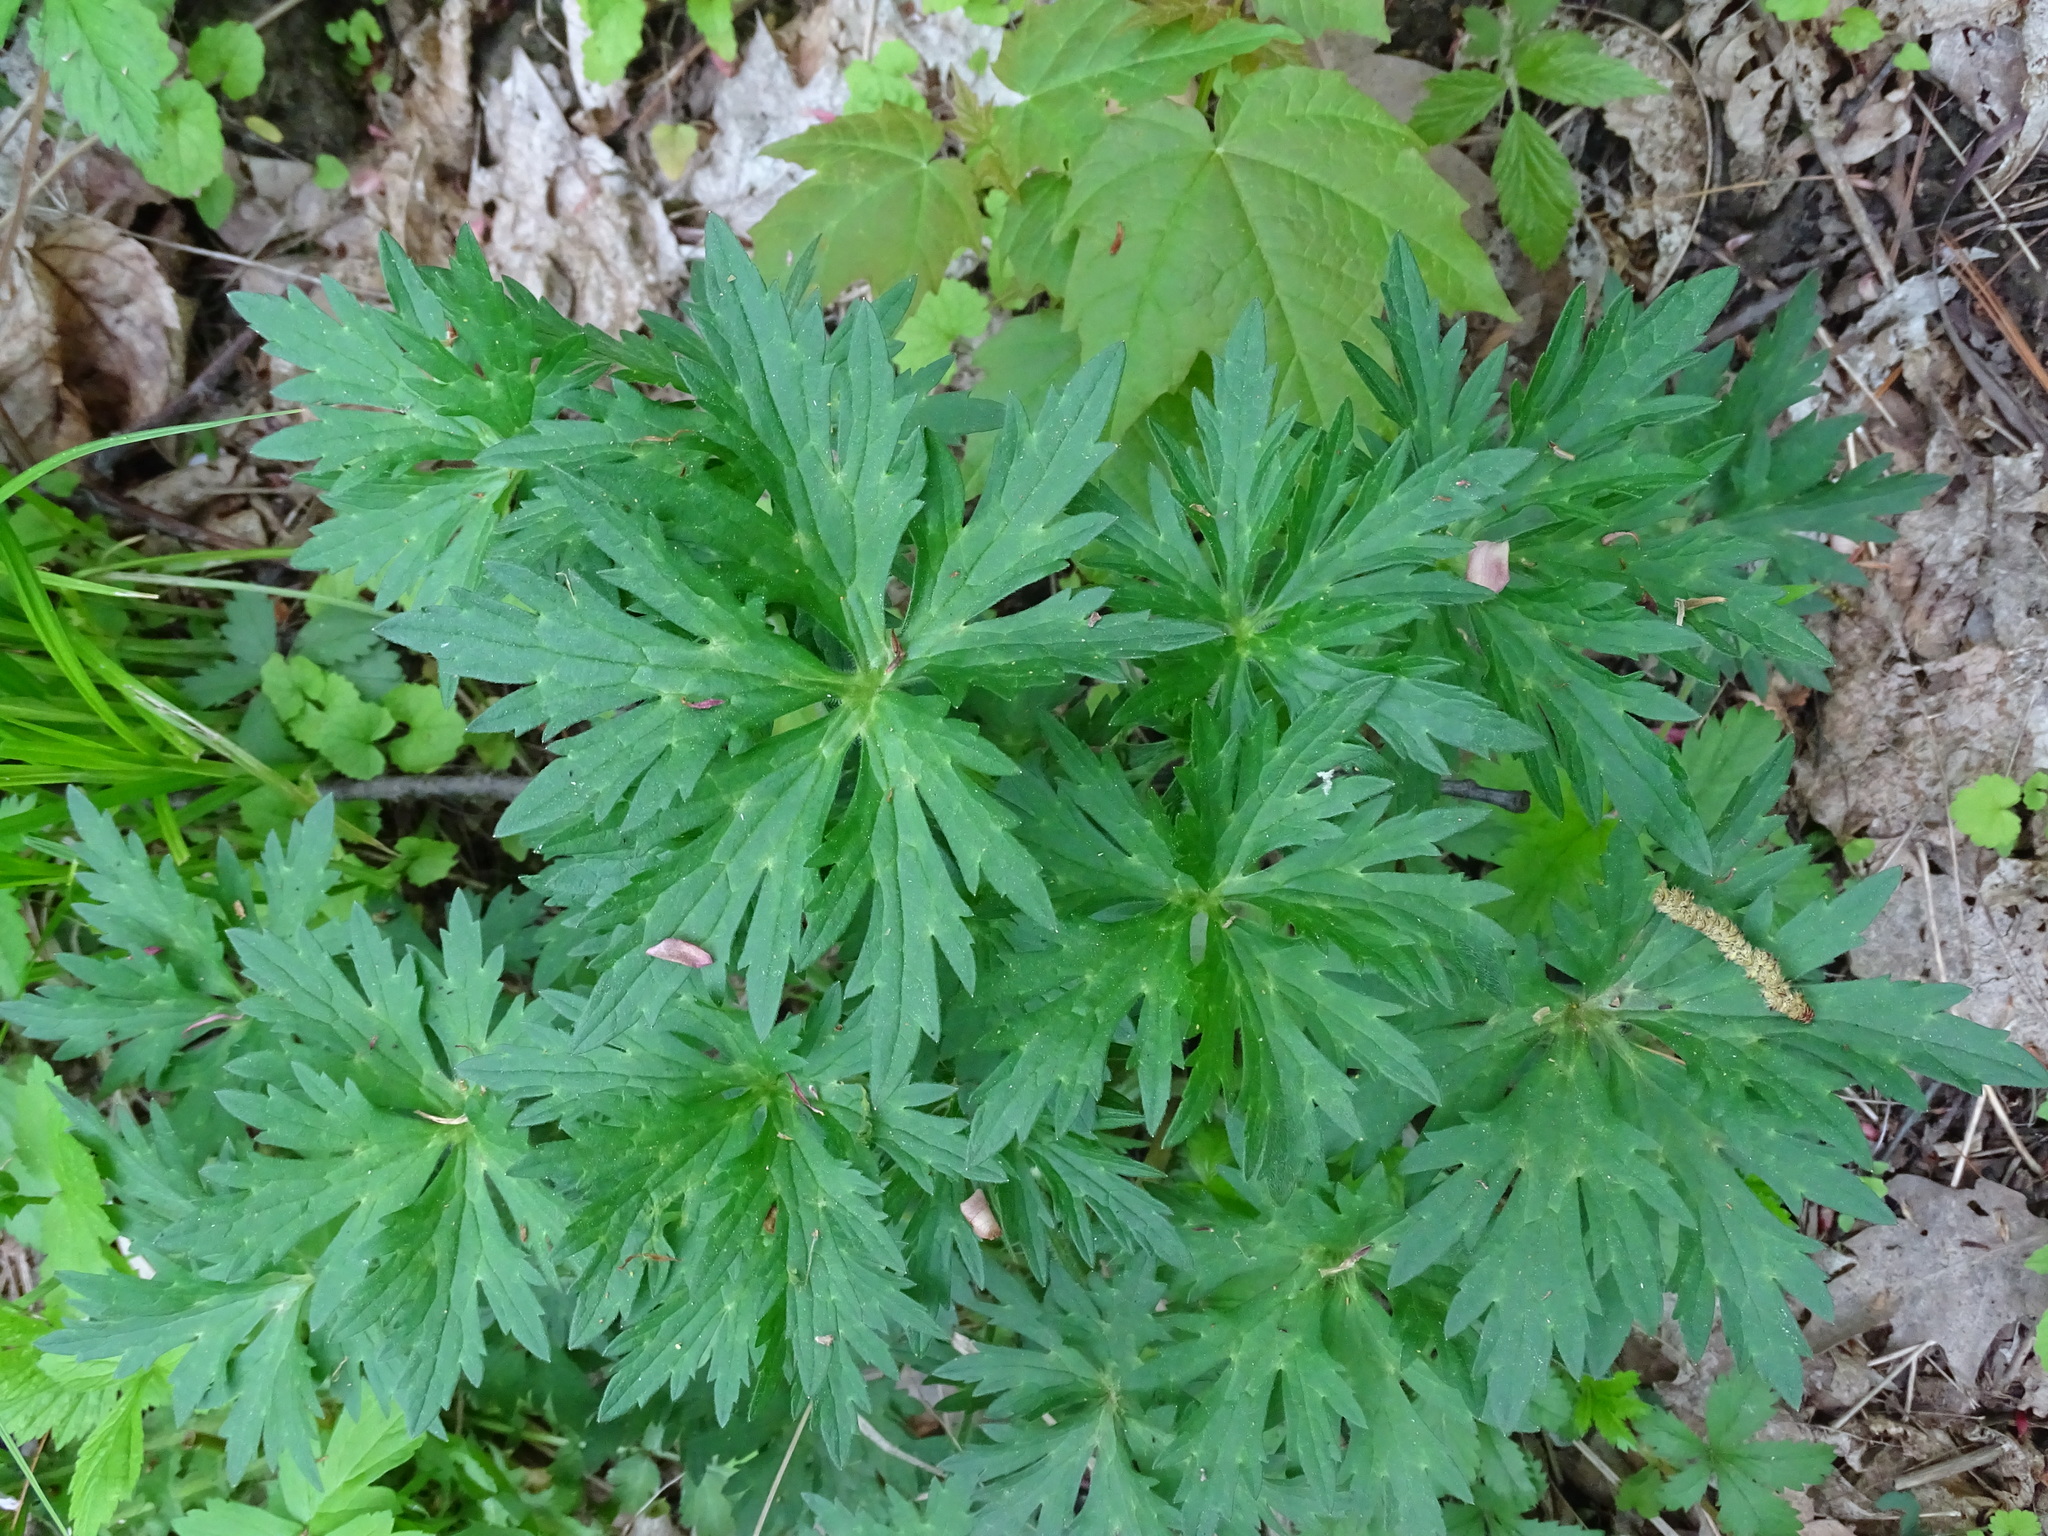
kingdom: Plantae
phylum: Tracheophyta
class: Magnoliopsida
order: Ranunculales
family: Ranunculaceae
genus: Ranunculus
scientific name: Ranunculus acris
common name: Meadow buttercup
